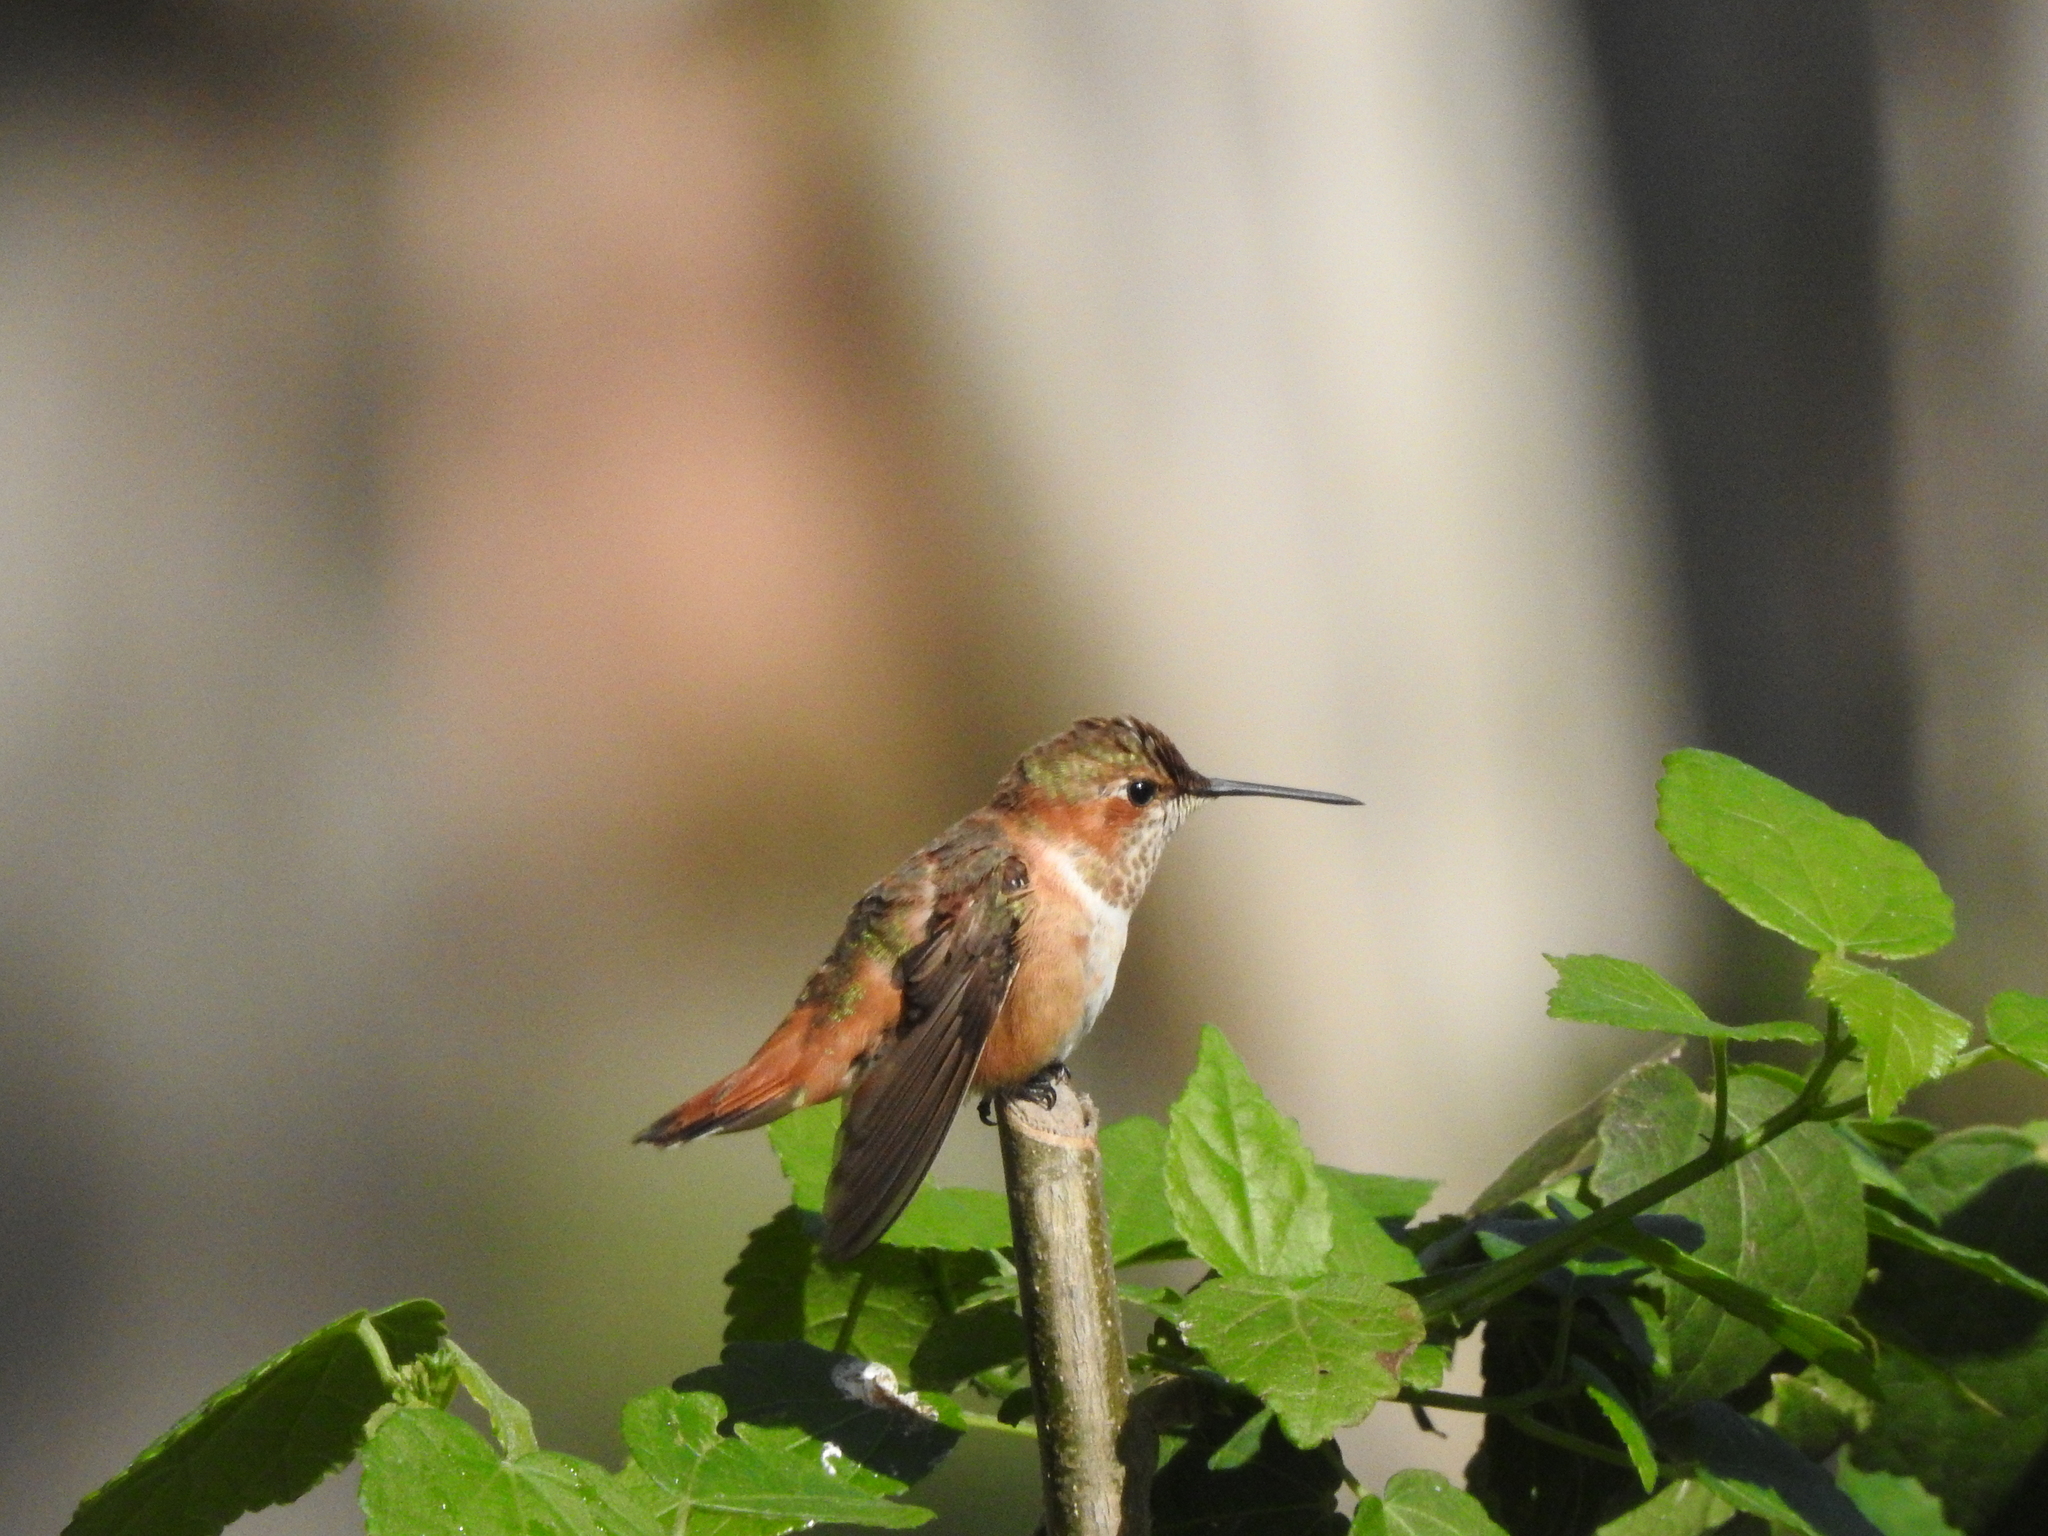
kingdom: Animalia
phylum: Chordata
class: Aves
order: Apodiformes
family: Trochilidae
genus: Selasphorus
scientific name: Selasphorus rufus
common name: Rufous hummingbird
